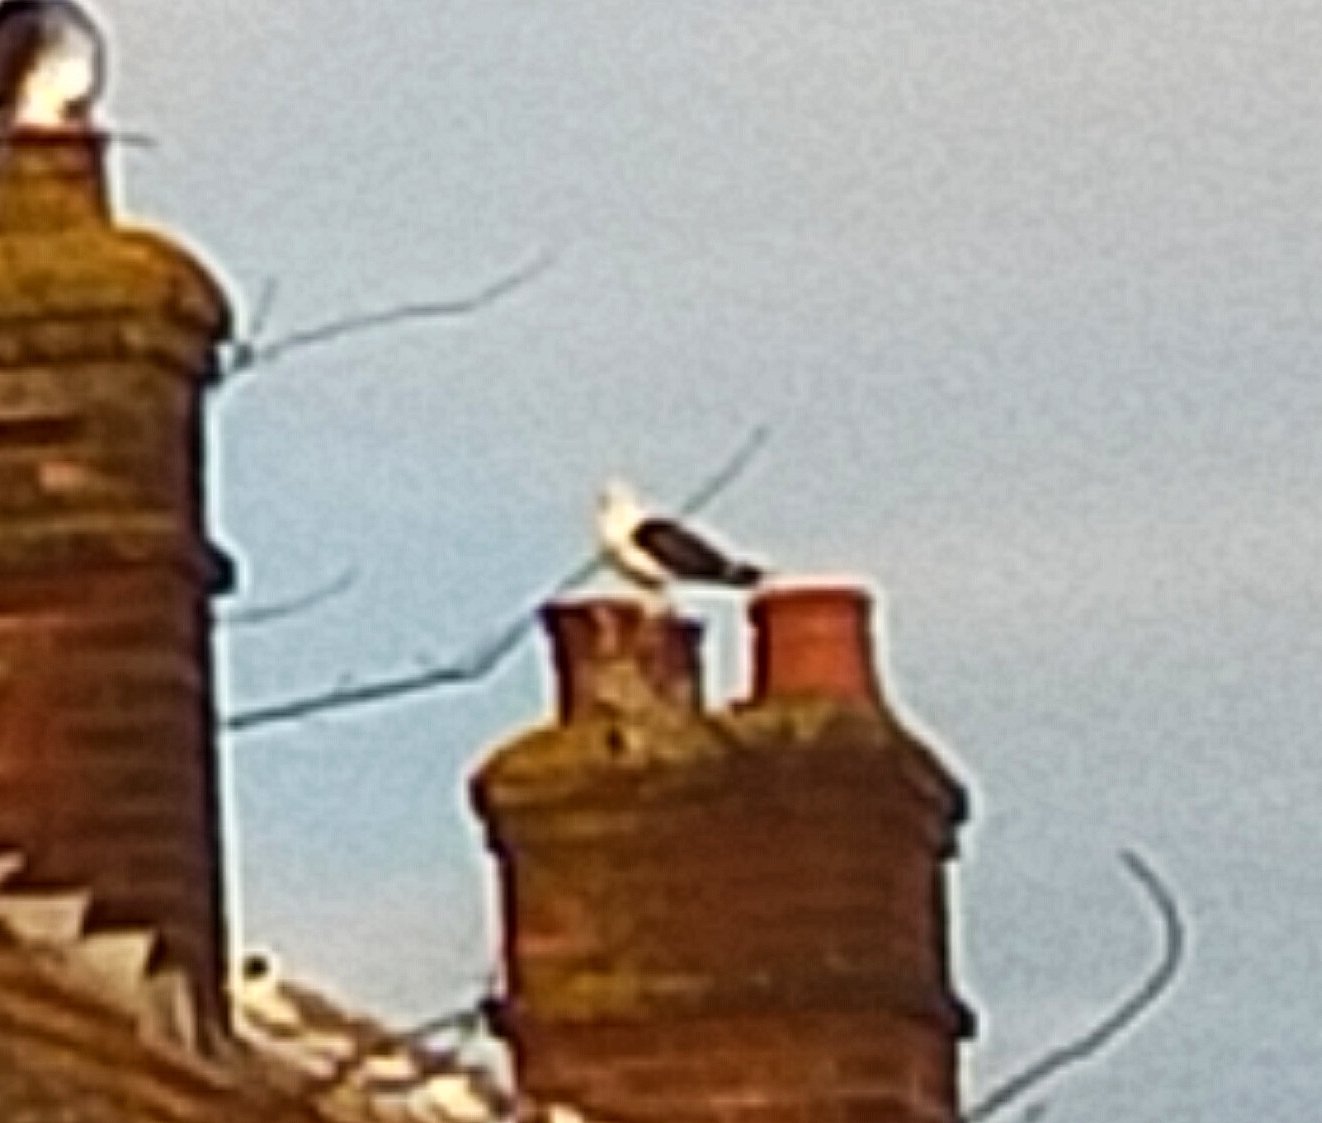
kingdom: Animalia
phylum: Chordata
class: Aves
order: Charadriiformes
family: Laridae
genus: Larus
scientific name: Larus marinus
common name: Great black-backed gull
